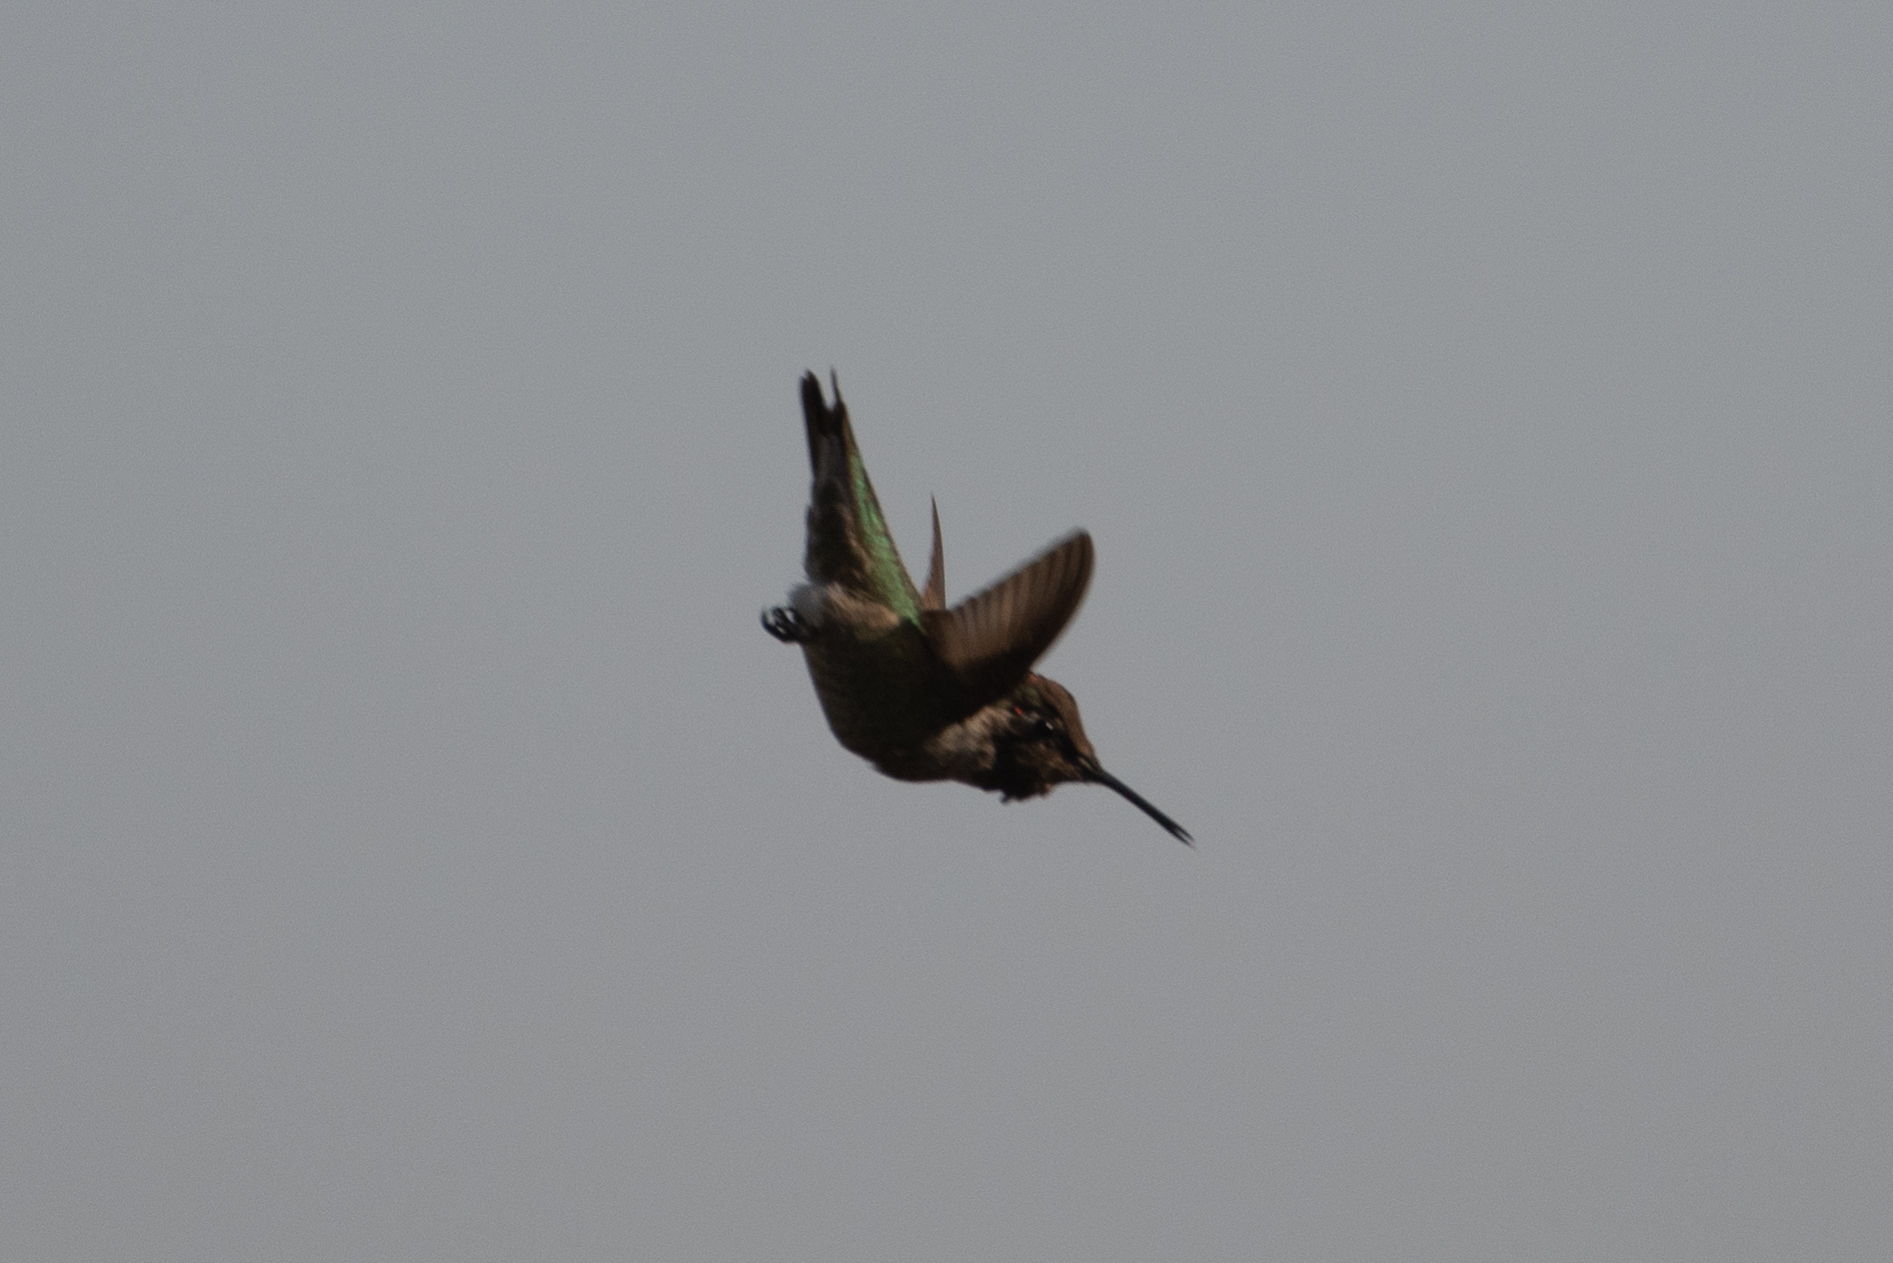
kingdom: Animalia
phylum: Chordata
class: Aves
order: Apodiformes
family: Trochilidae
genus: Calypte
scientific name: Calypte anna
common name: Anna's hummingbird
